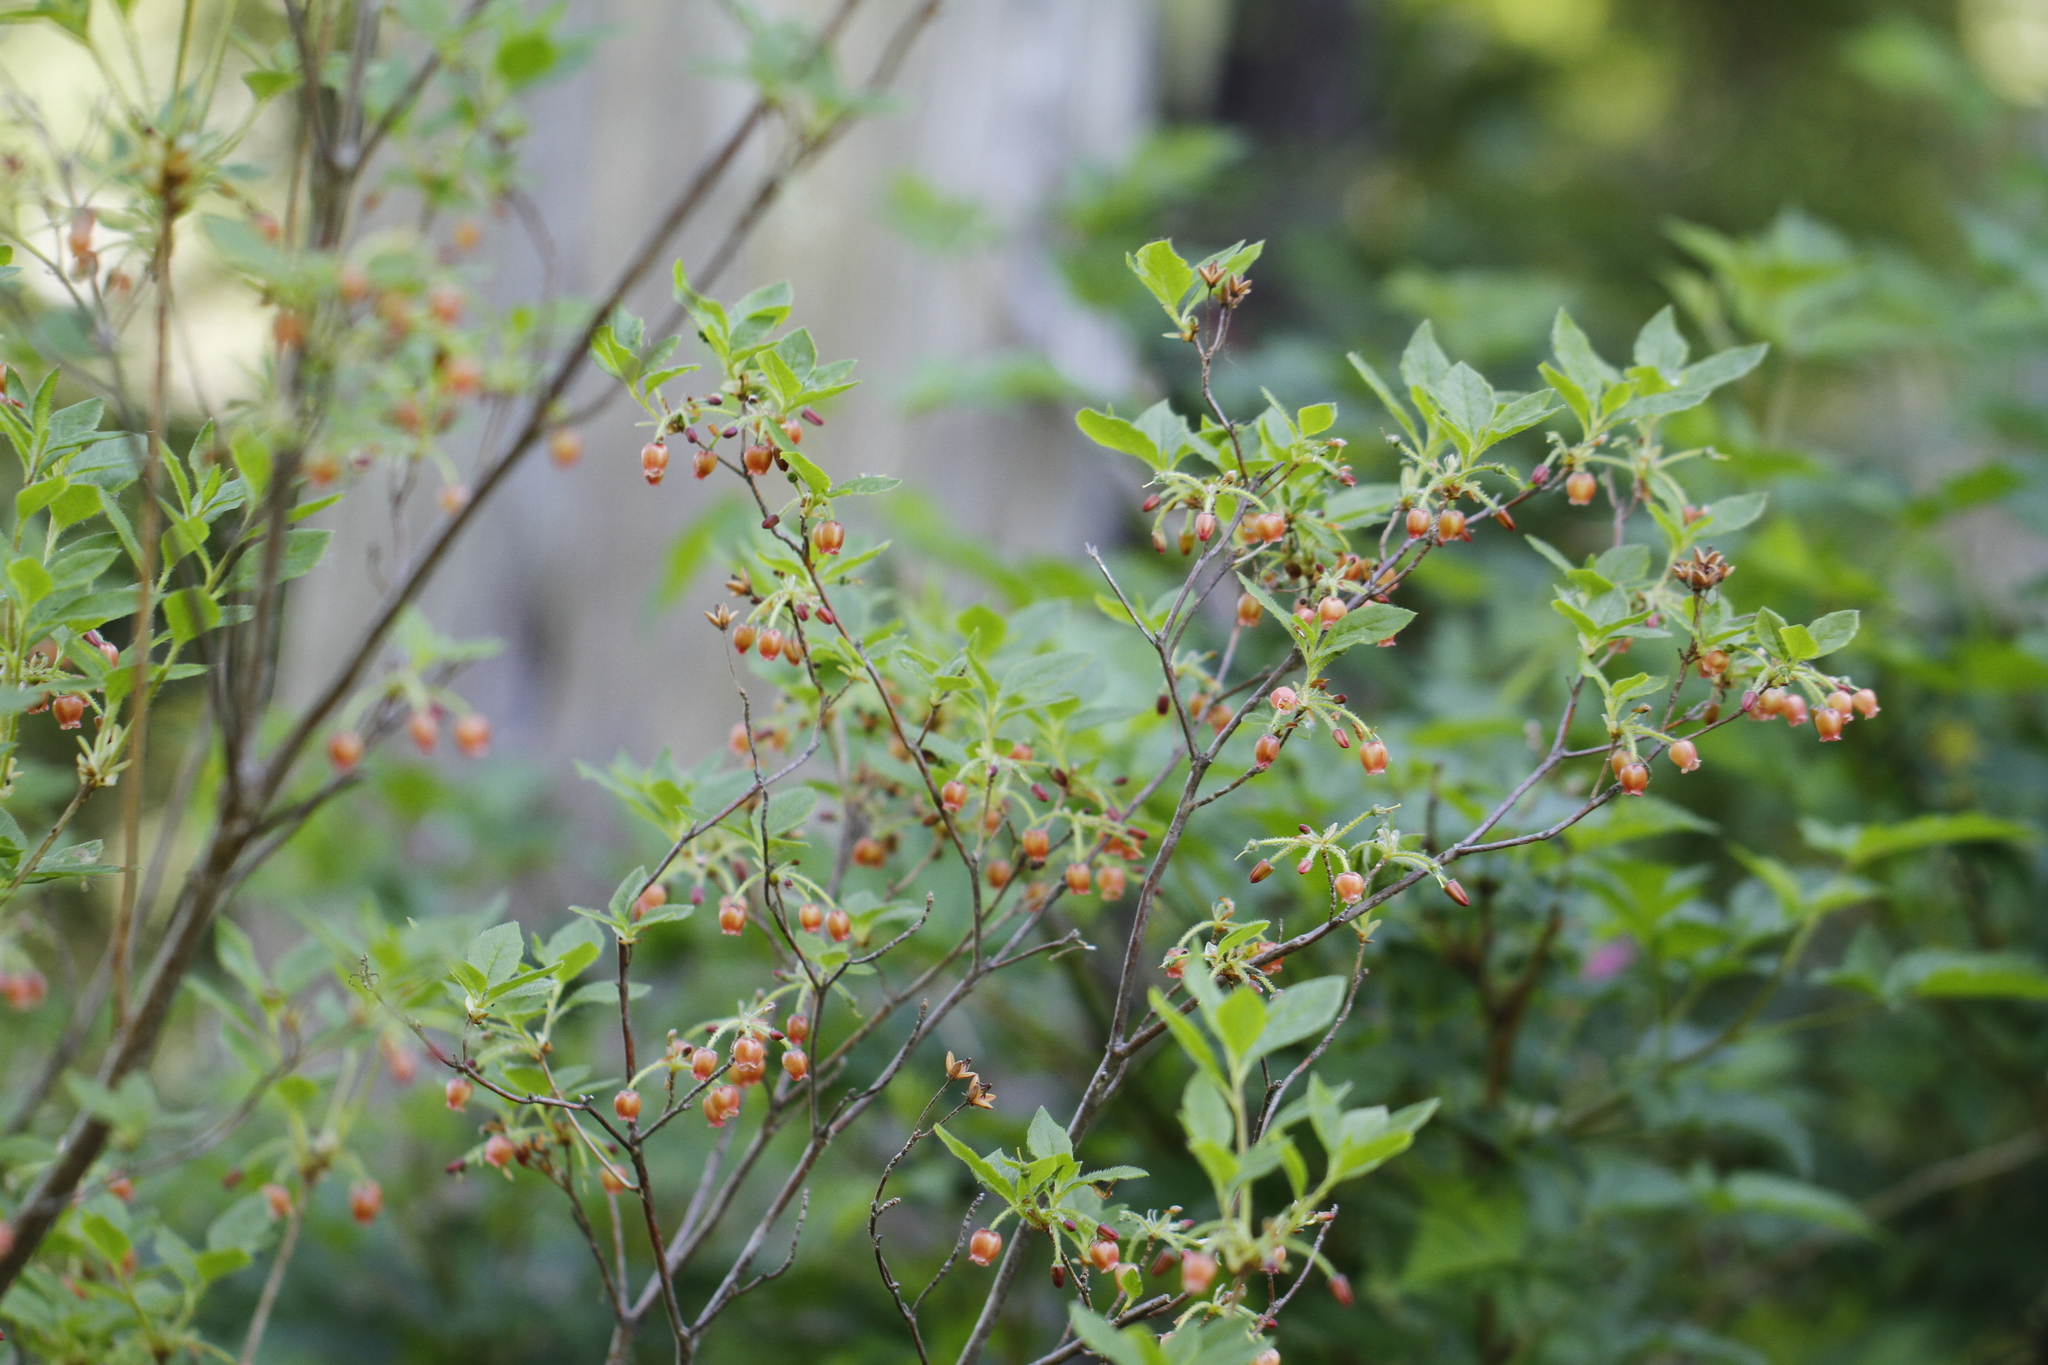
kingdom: Plantae
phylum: Tracheophyta
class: Magnoliopsida
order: Ericales
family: Ericaceae
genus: Rhododendron
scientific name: Rhododendron menziesii
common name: Pacific menziesia
